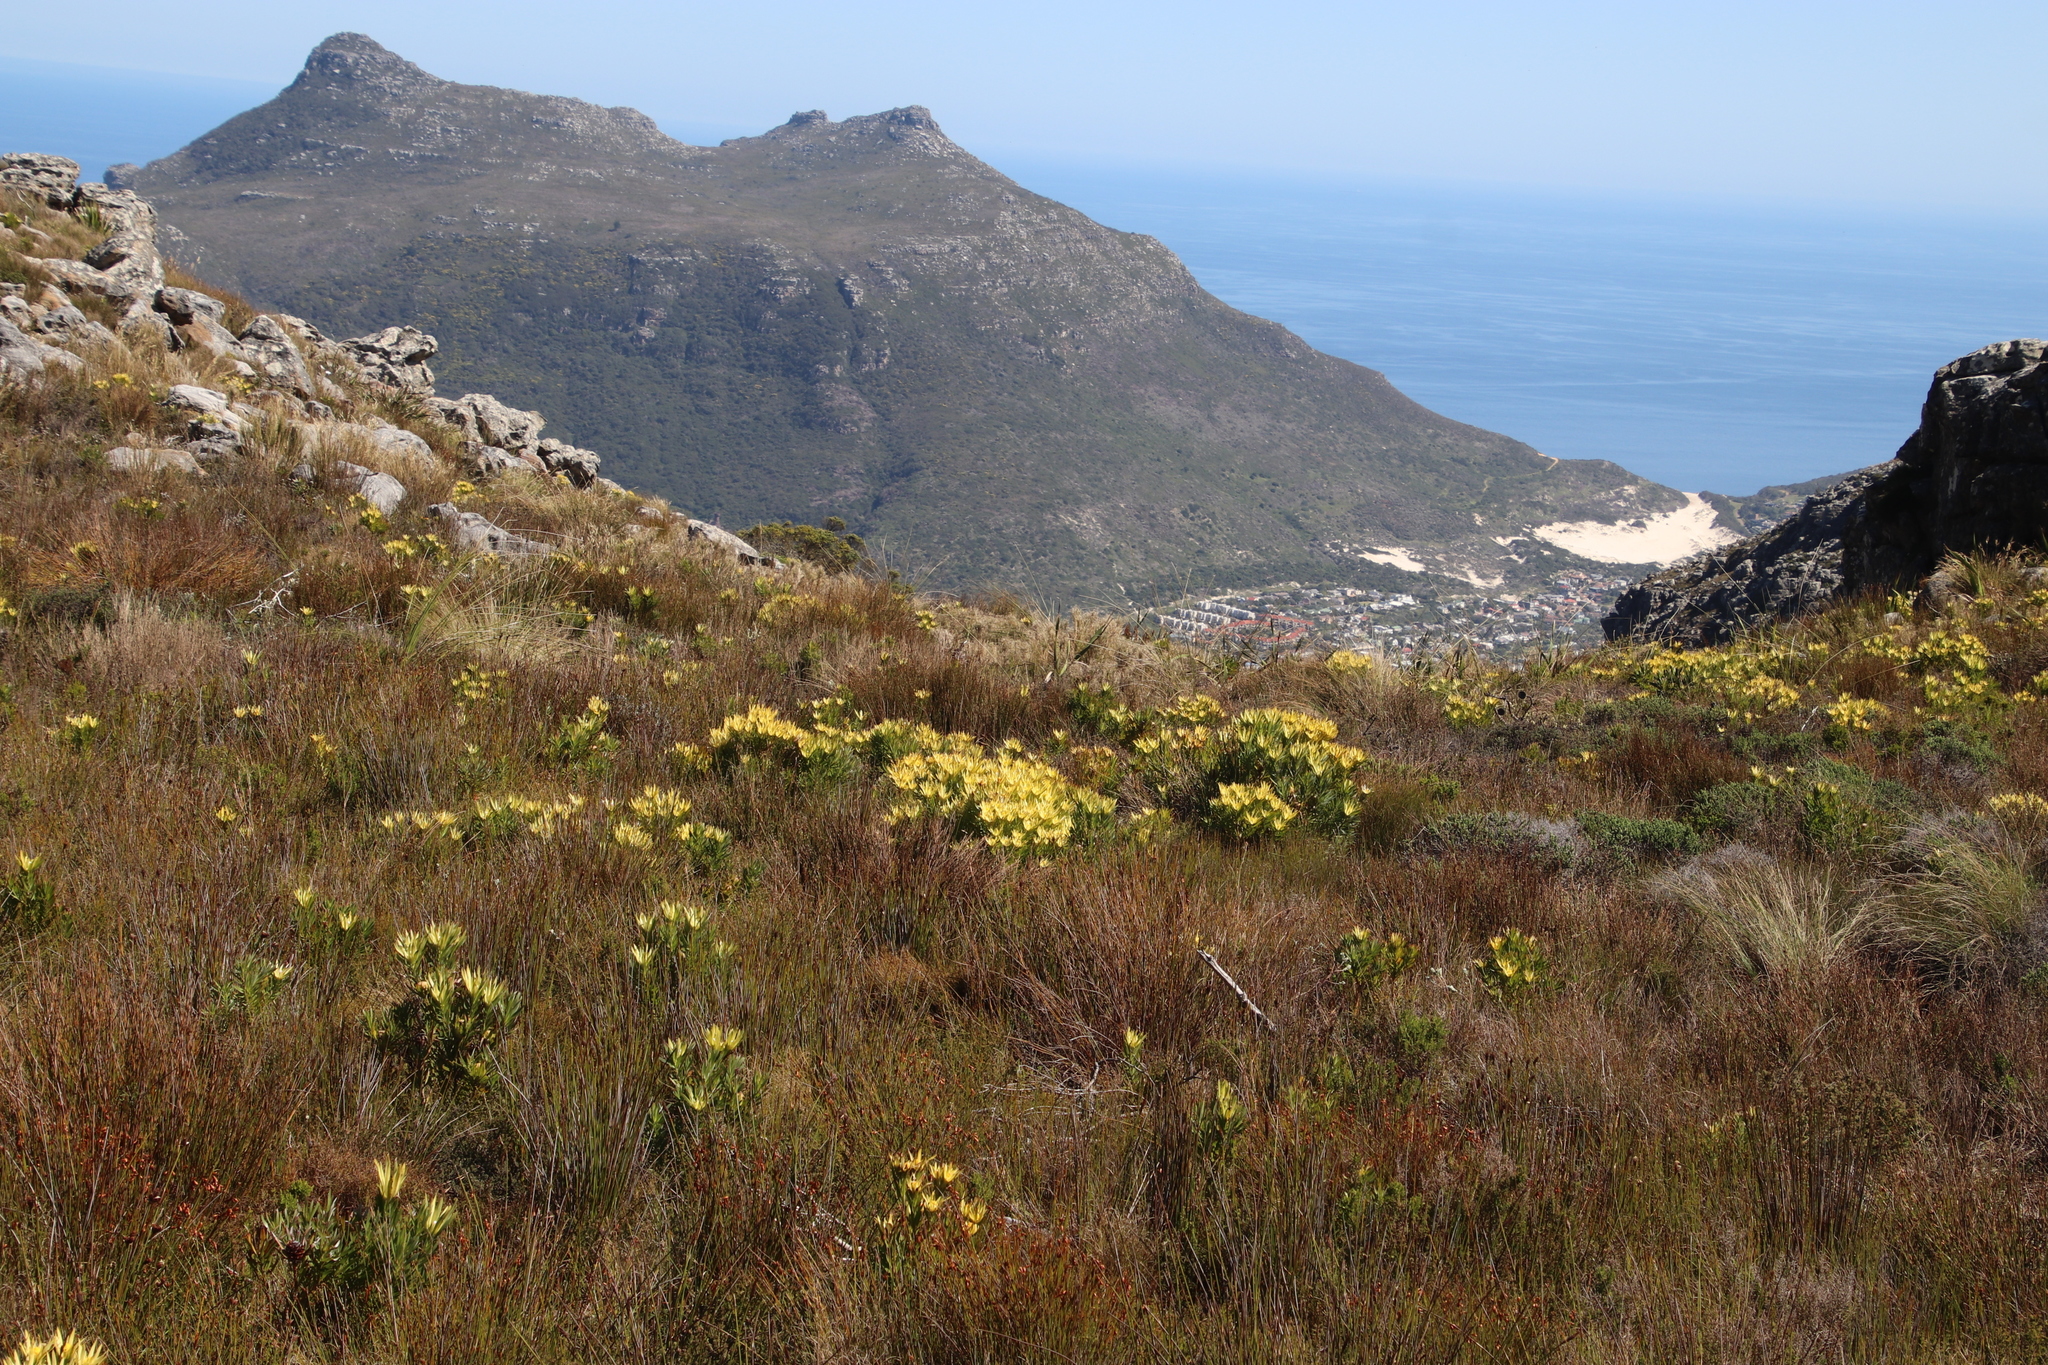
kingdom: Plantae
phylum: Tracheophyta
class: Magnoliopsida
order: Proteales
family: Proteaceae
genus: Leucadendron
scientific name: Leucadendron xanthoconus
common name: Sickle-leaf conebush
